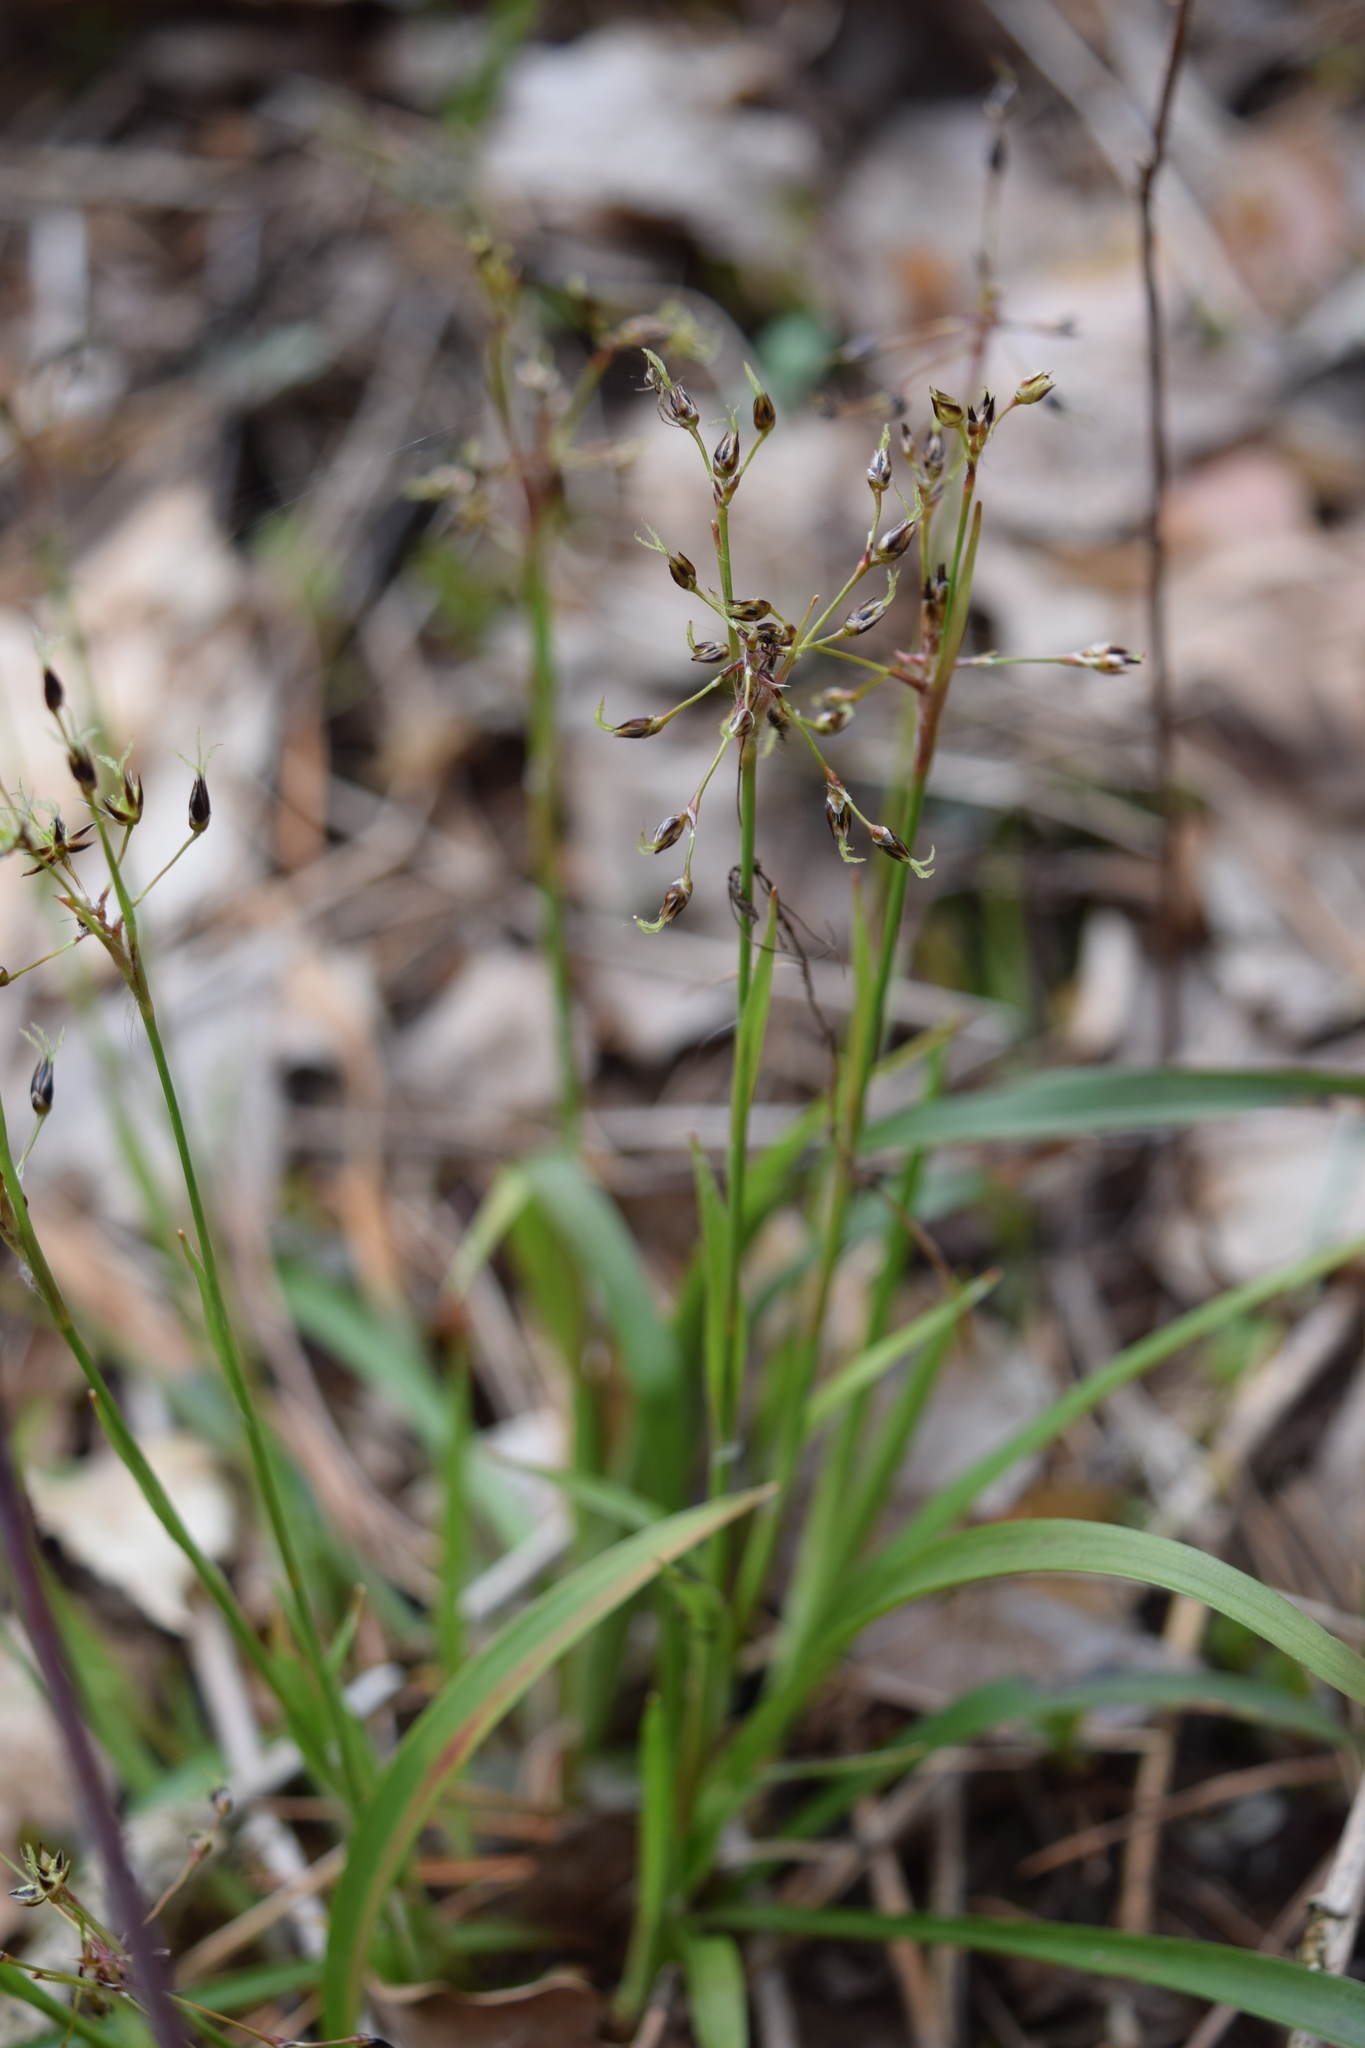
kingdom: Plantae
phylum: Tracheophyta
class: Liliopsida
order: Poales
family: Juncaceae
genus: Luzula
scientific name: Luzula pilosa
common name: Hairy wood-rush
